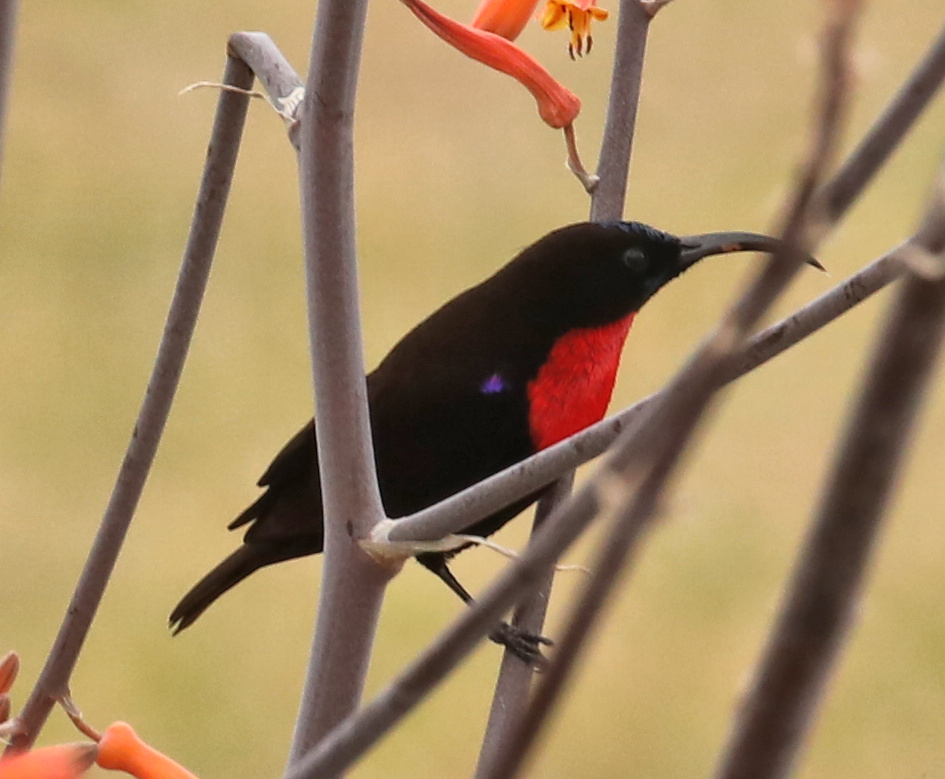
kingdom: Animalia
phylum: Chordata
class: Aves
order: Passeriformes
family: Nectariniidae
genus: Chalcomitra
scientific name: Chalcomitra senegalensis
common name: Scarlet-chested sunbird
